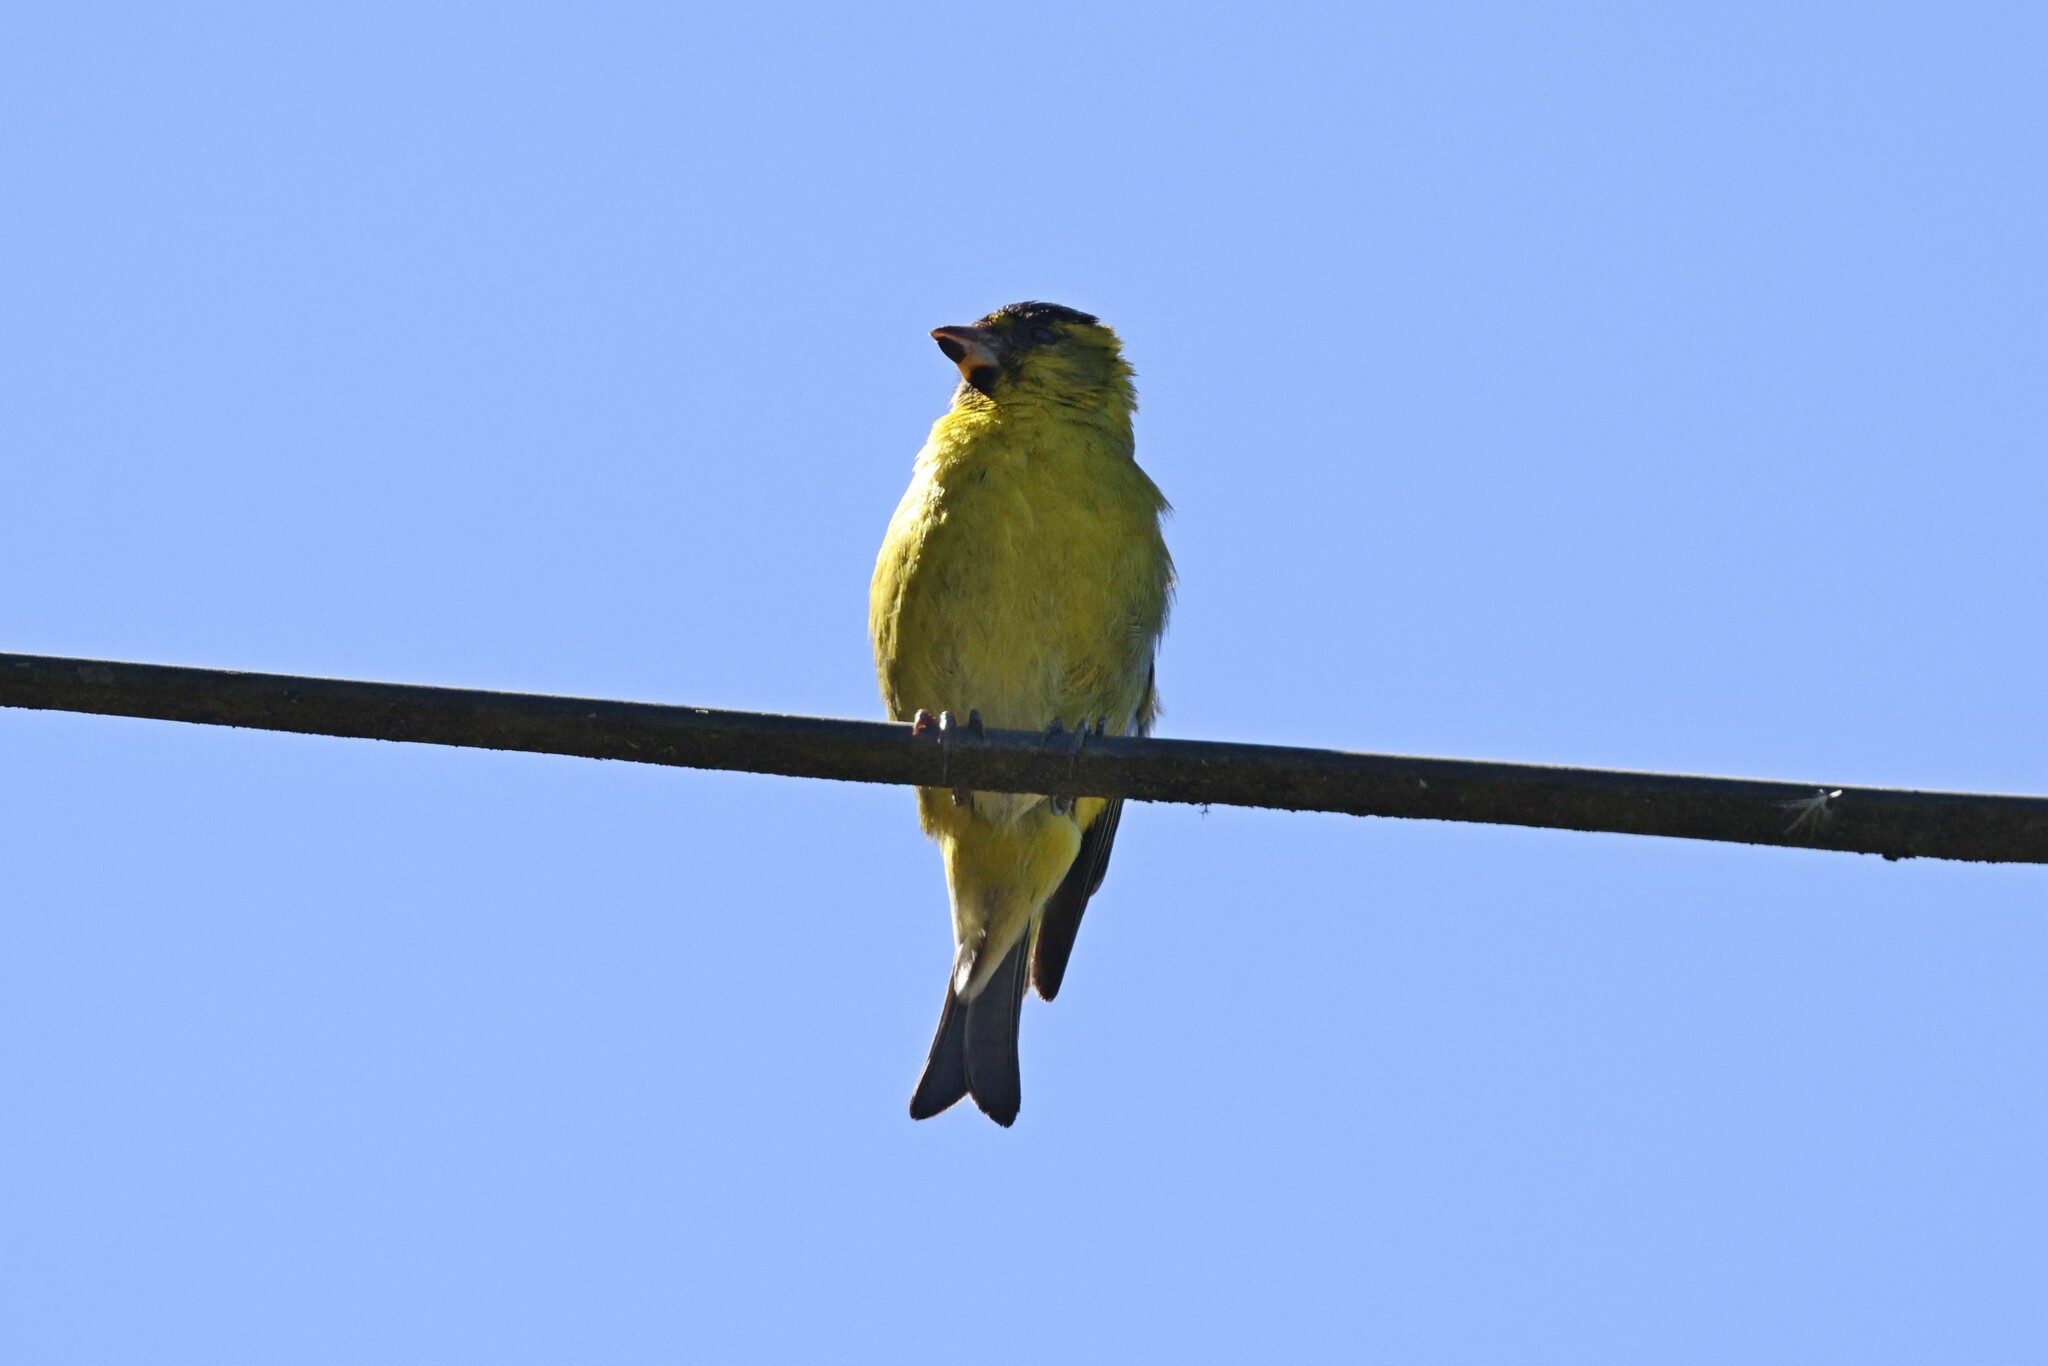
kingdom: Animalia
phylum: Chordata
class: Aves
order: Passeriformes
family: Fringillidae
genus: Spinus
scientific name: Spinus barbatus
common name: Black-chinned siskin
